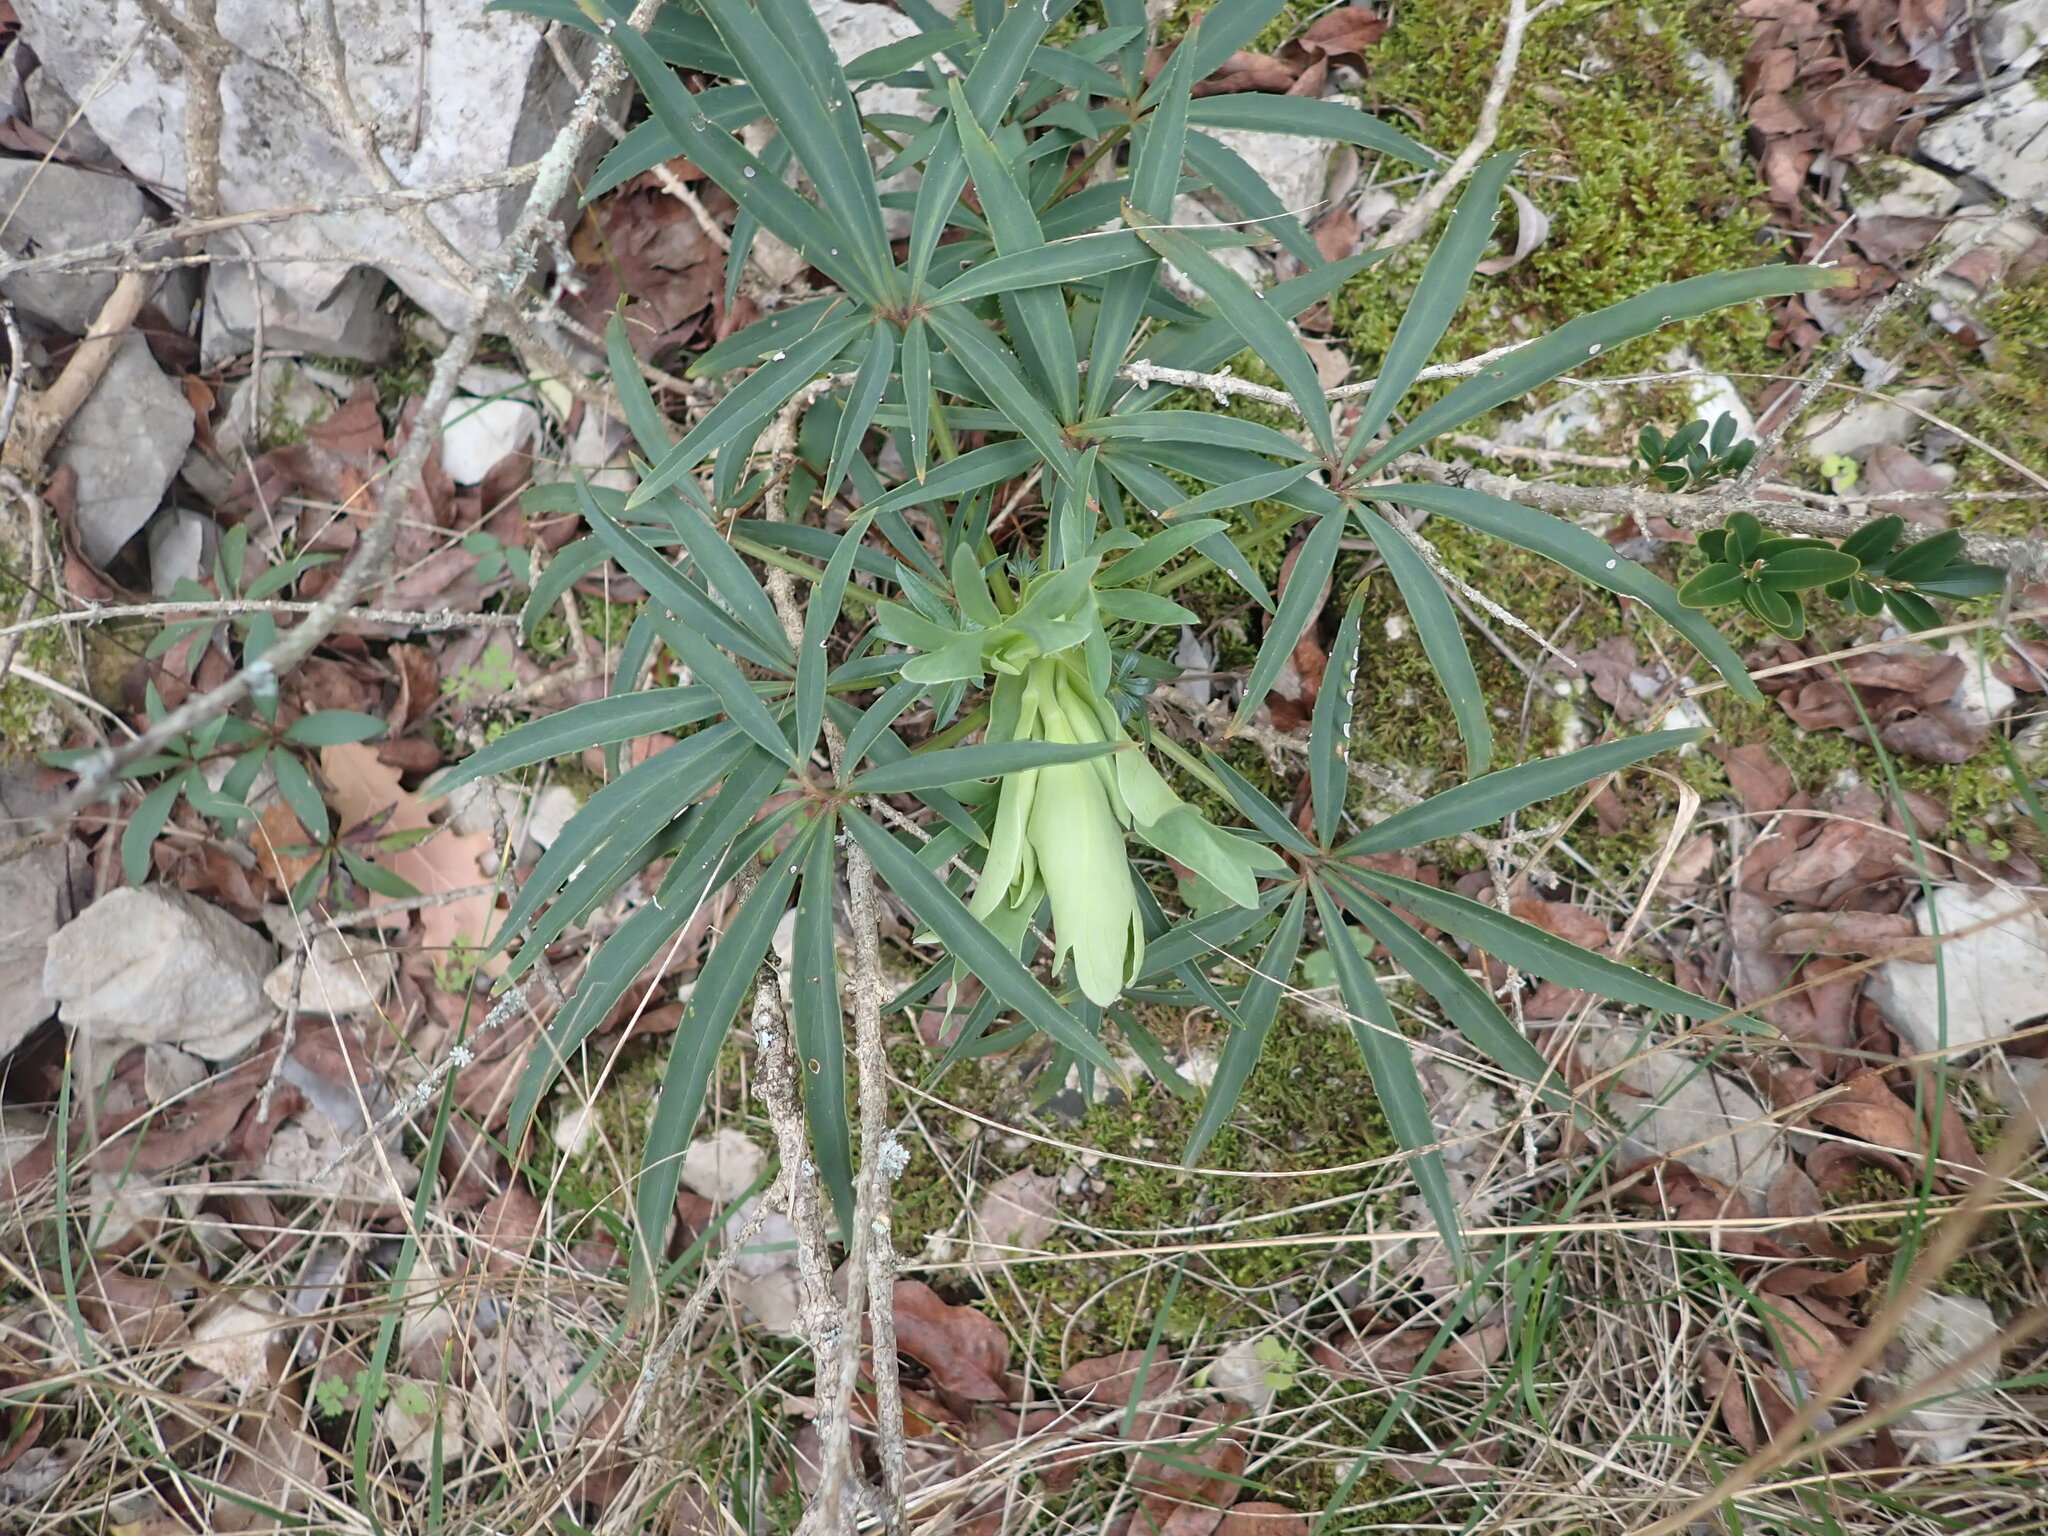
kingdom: Plantae
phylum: Tracheophyta
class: Magnoliopsida
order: Ranunculales
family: Ranunculaceae
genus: Helleborus
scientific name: Helleborus foetidus
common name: Stinking hellebore
